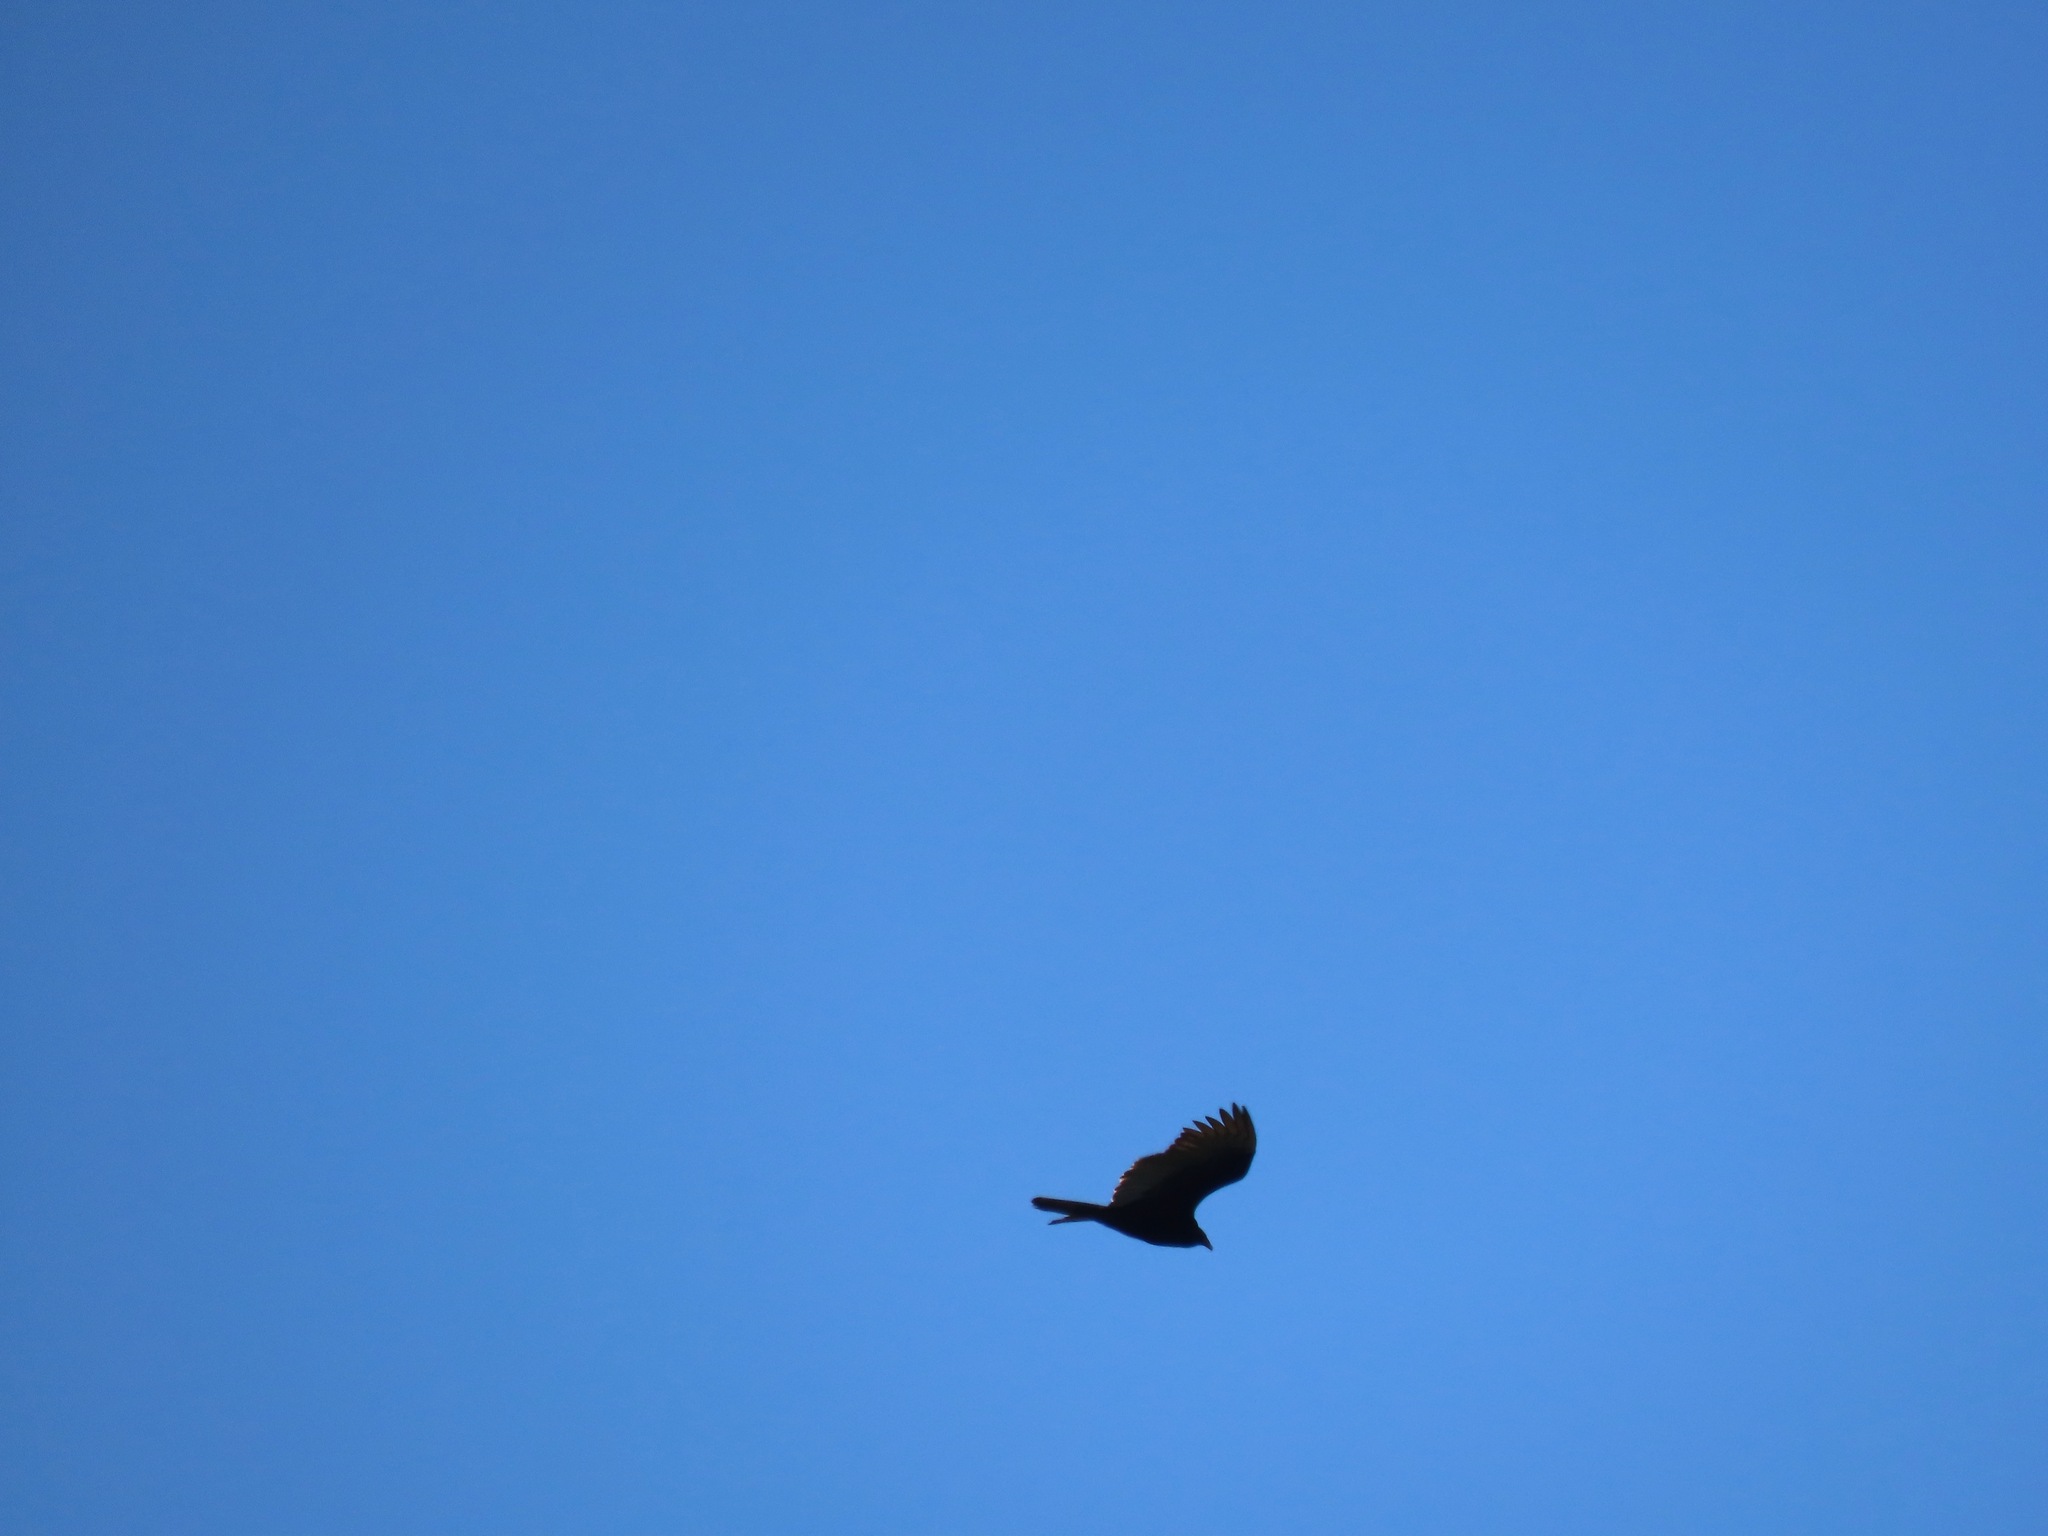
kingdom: Animalia
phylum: Chordata
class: Aves
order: Accipitriformes
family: Cathartidae
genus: Cathartes
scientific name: Cathartes aura
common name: Turkey vulture
